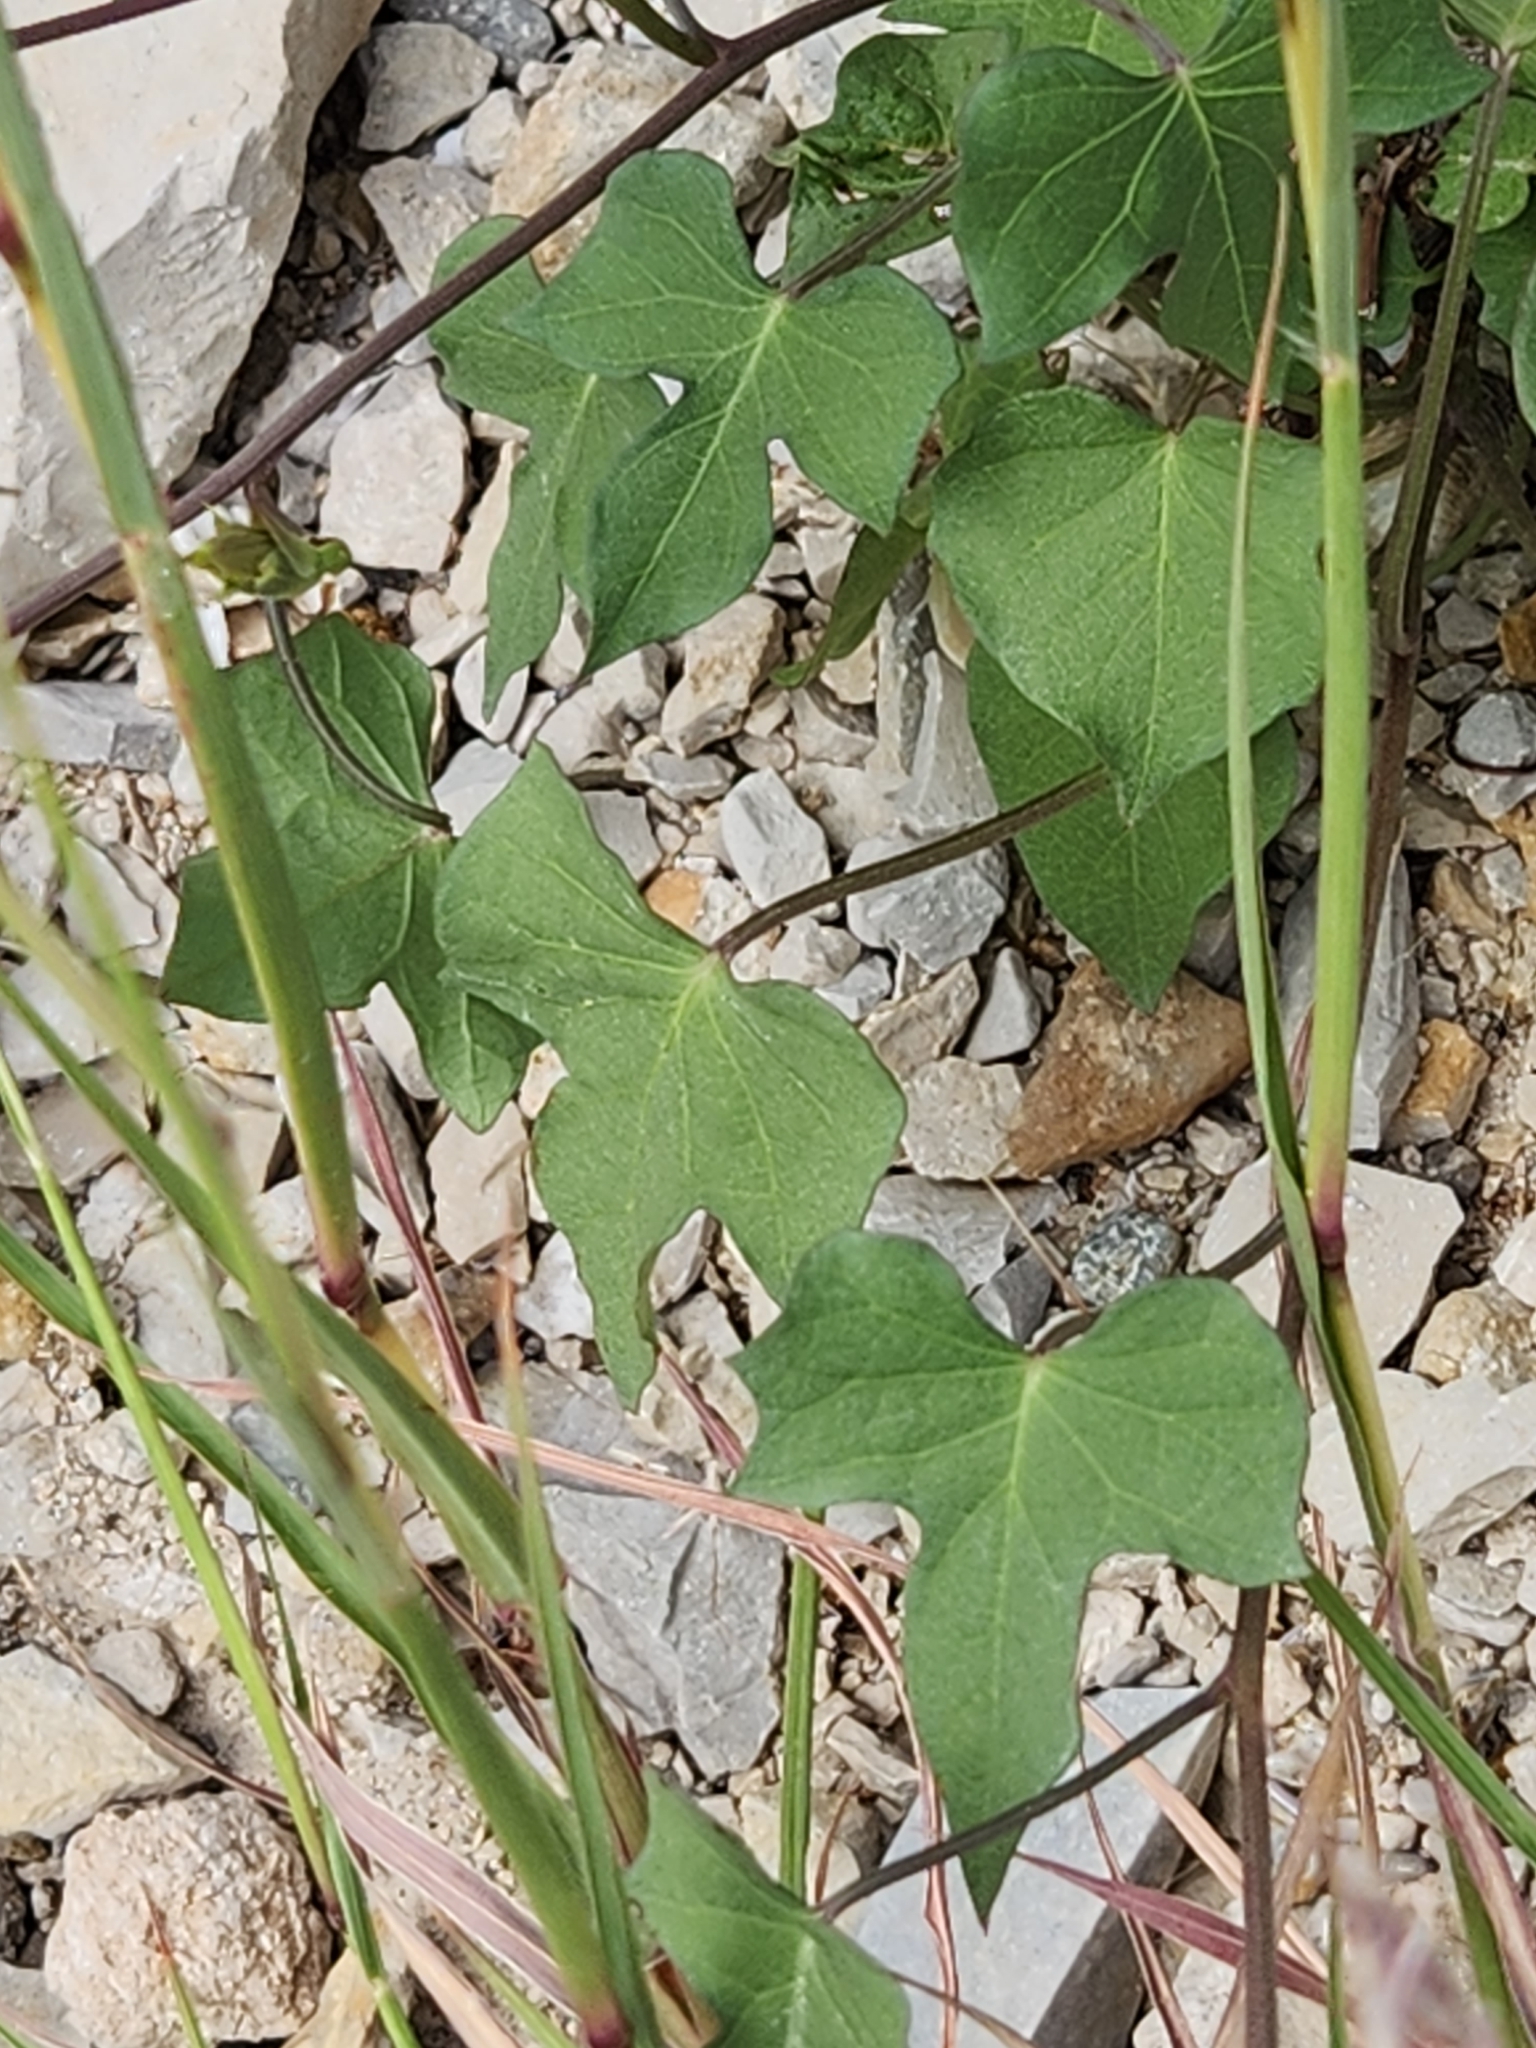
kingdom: Plantae
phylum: Tracheophyta
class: Magnoliopsida
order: Solanales
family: Convolvulaceae
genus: Ipomoea
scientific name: Ipomoea cordatotriloba
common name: Cotton morning glory
